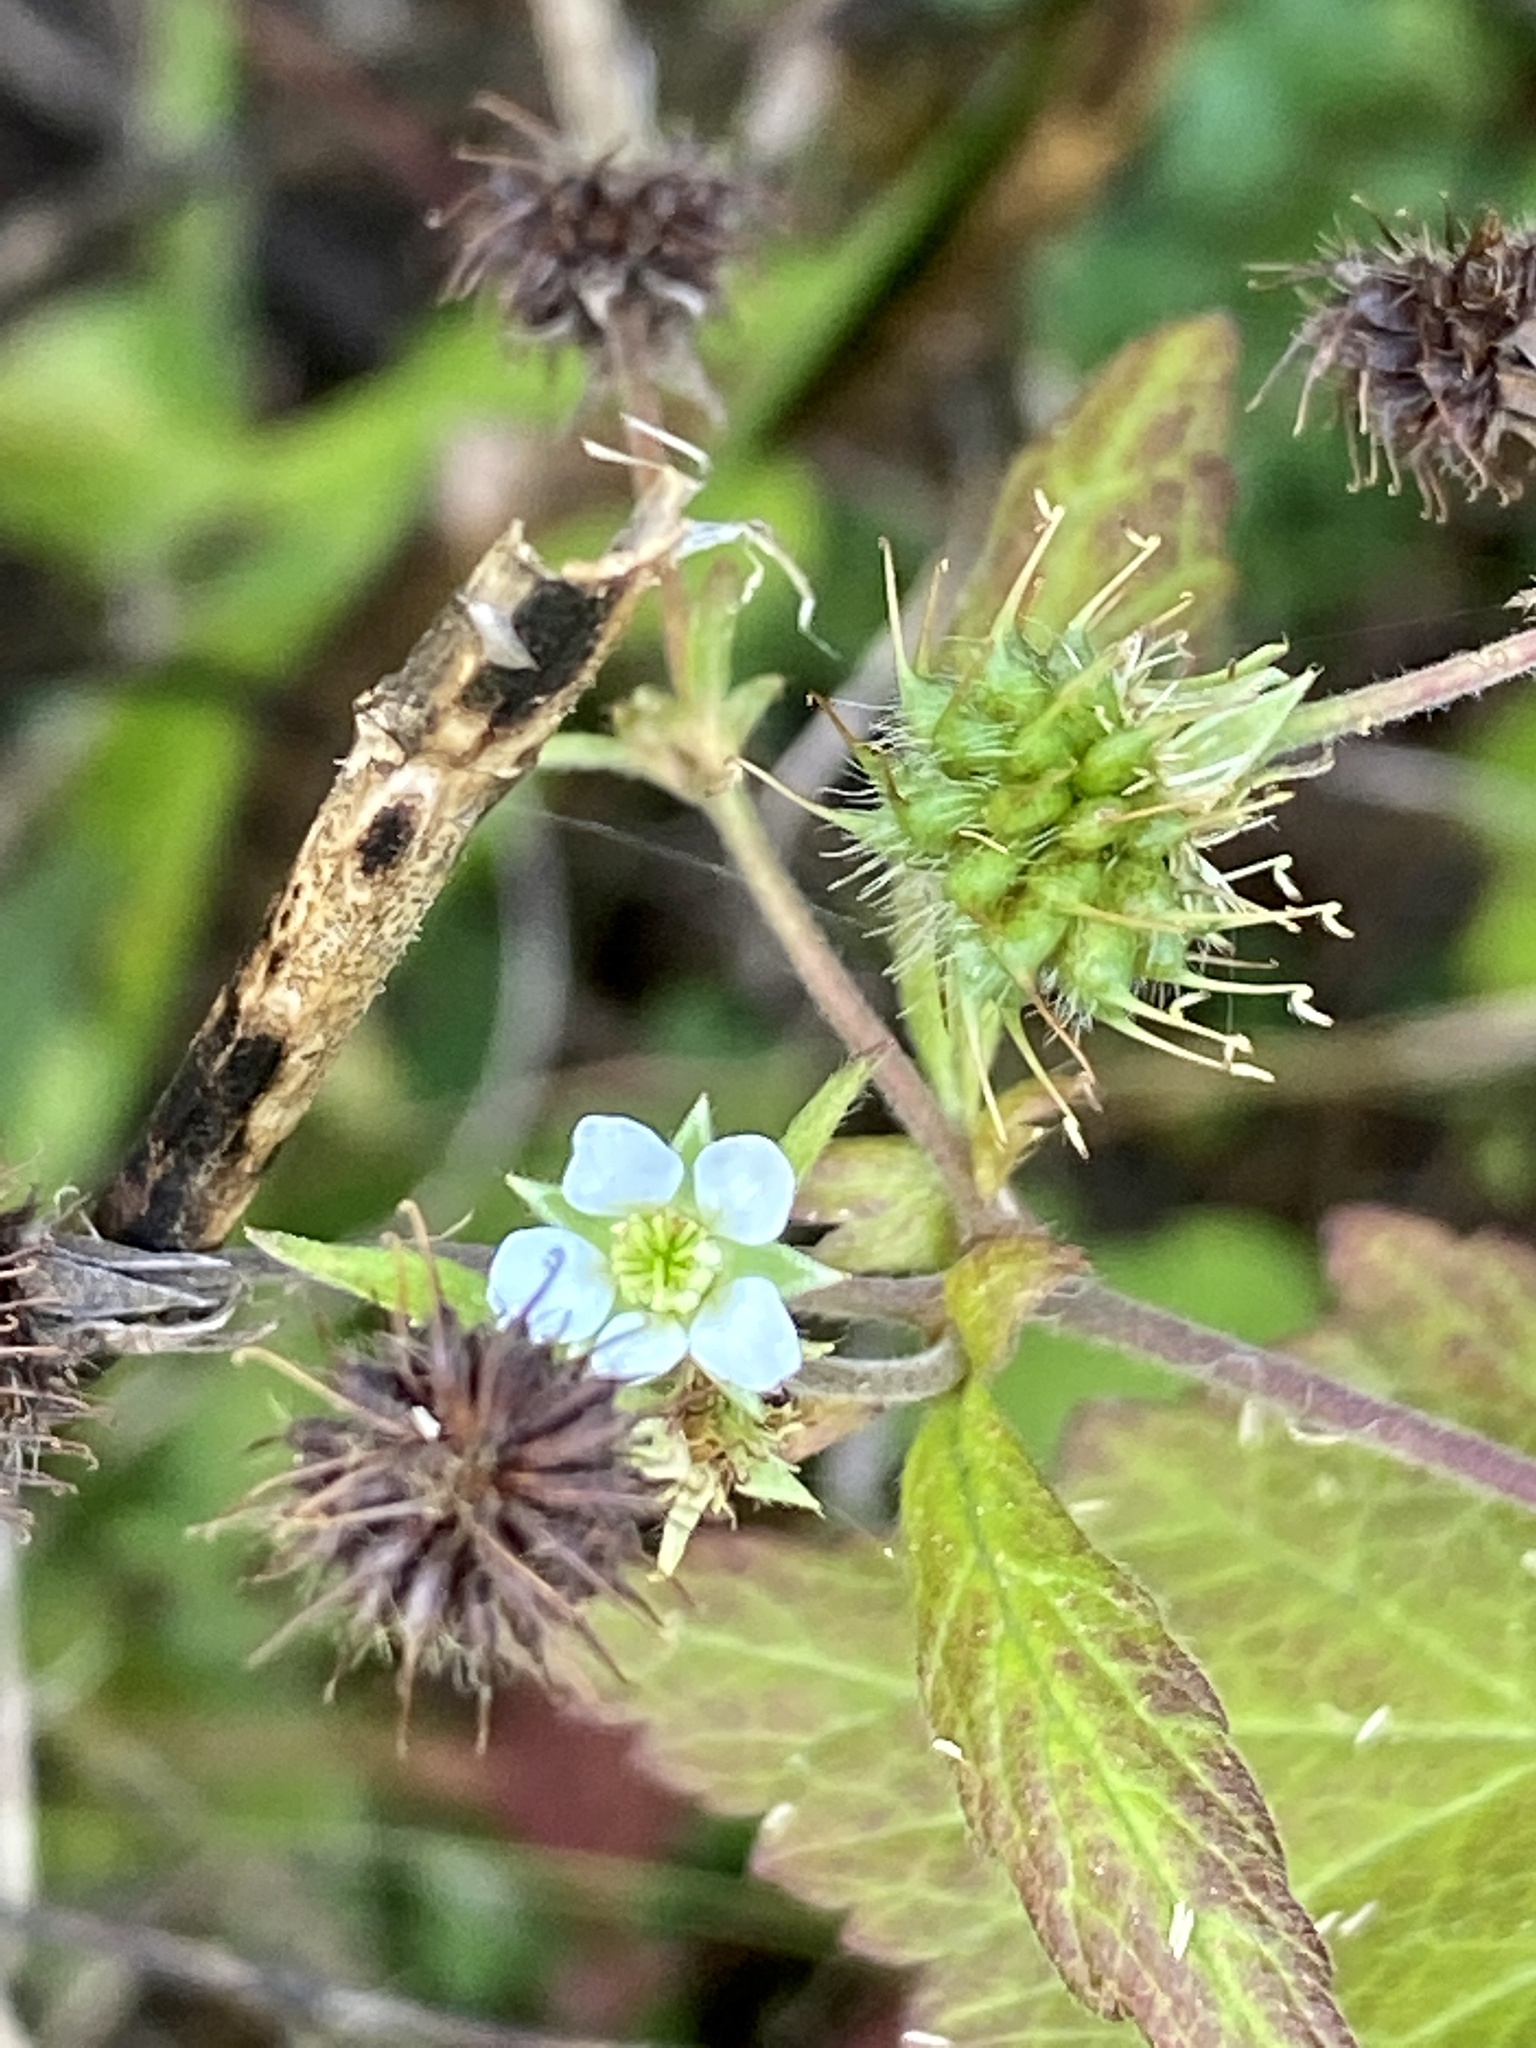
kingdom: Plantae
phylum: Tracheophyta
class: Magnoliopsida
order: Rosales
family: Rosaceae
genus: Geum
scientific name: Geum canadense
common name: White avens
